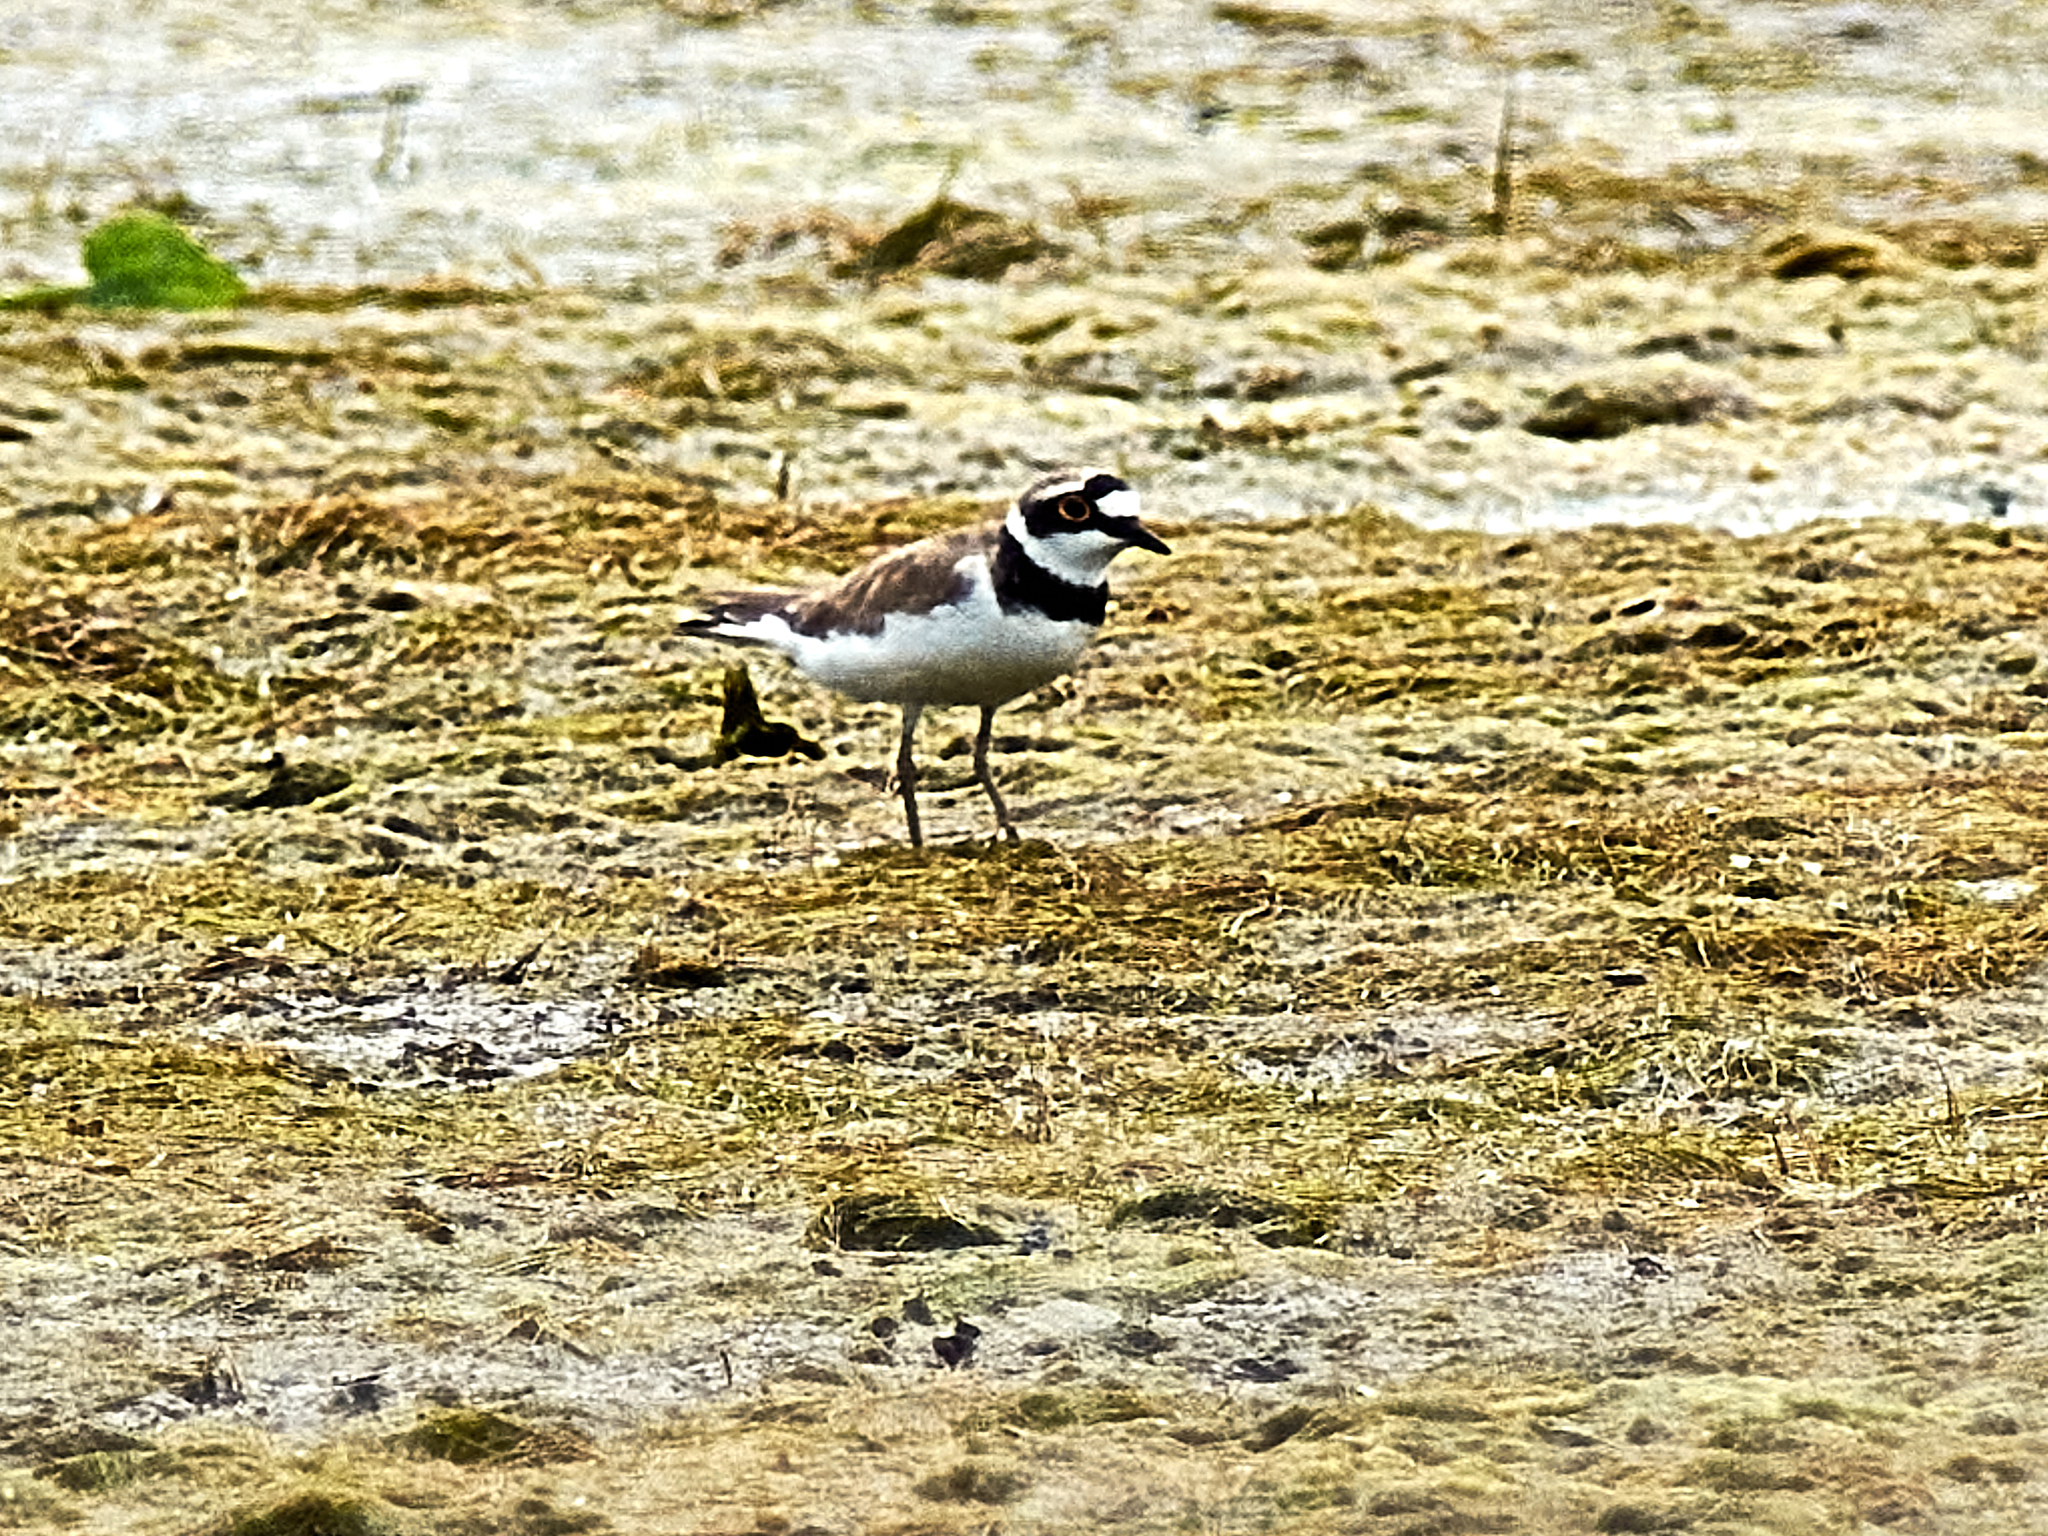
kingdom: Animalia
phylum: Chordata
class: Aves
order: Charadriiformes
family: Charadriidae
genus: Charadrius
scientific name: Charadrius dubius
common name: Little ringed plover
